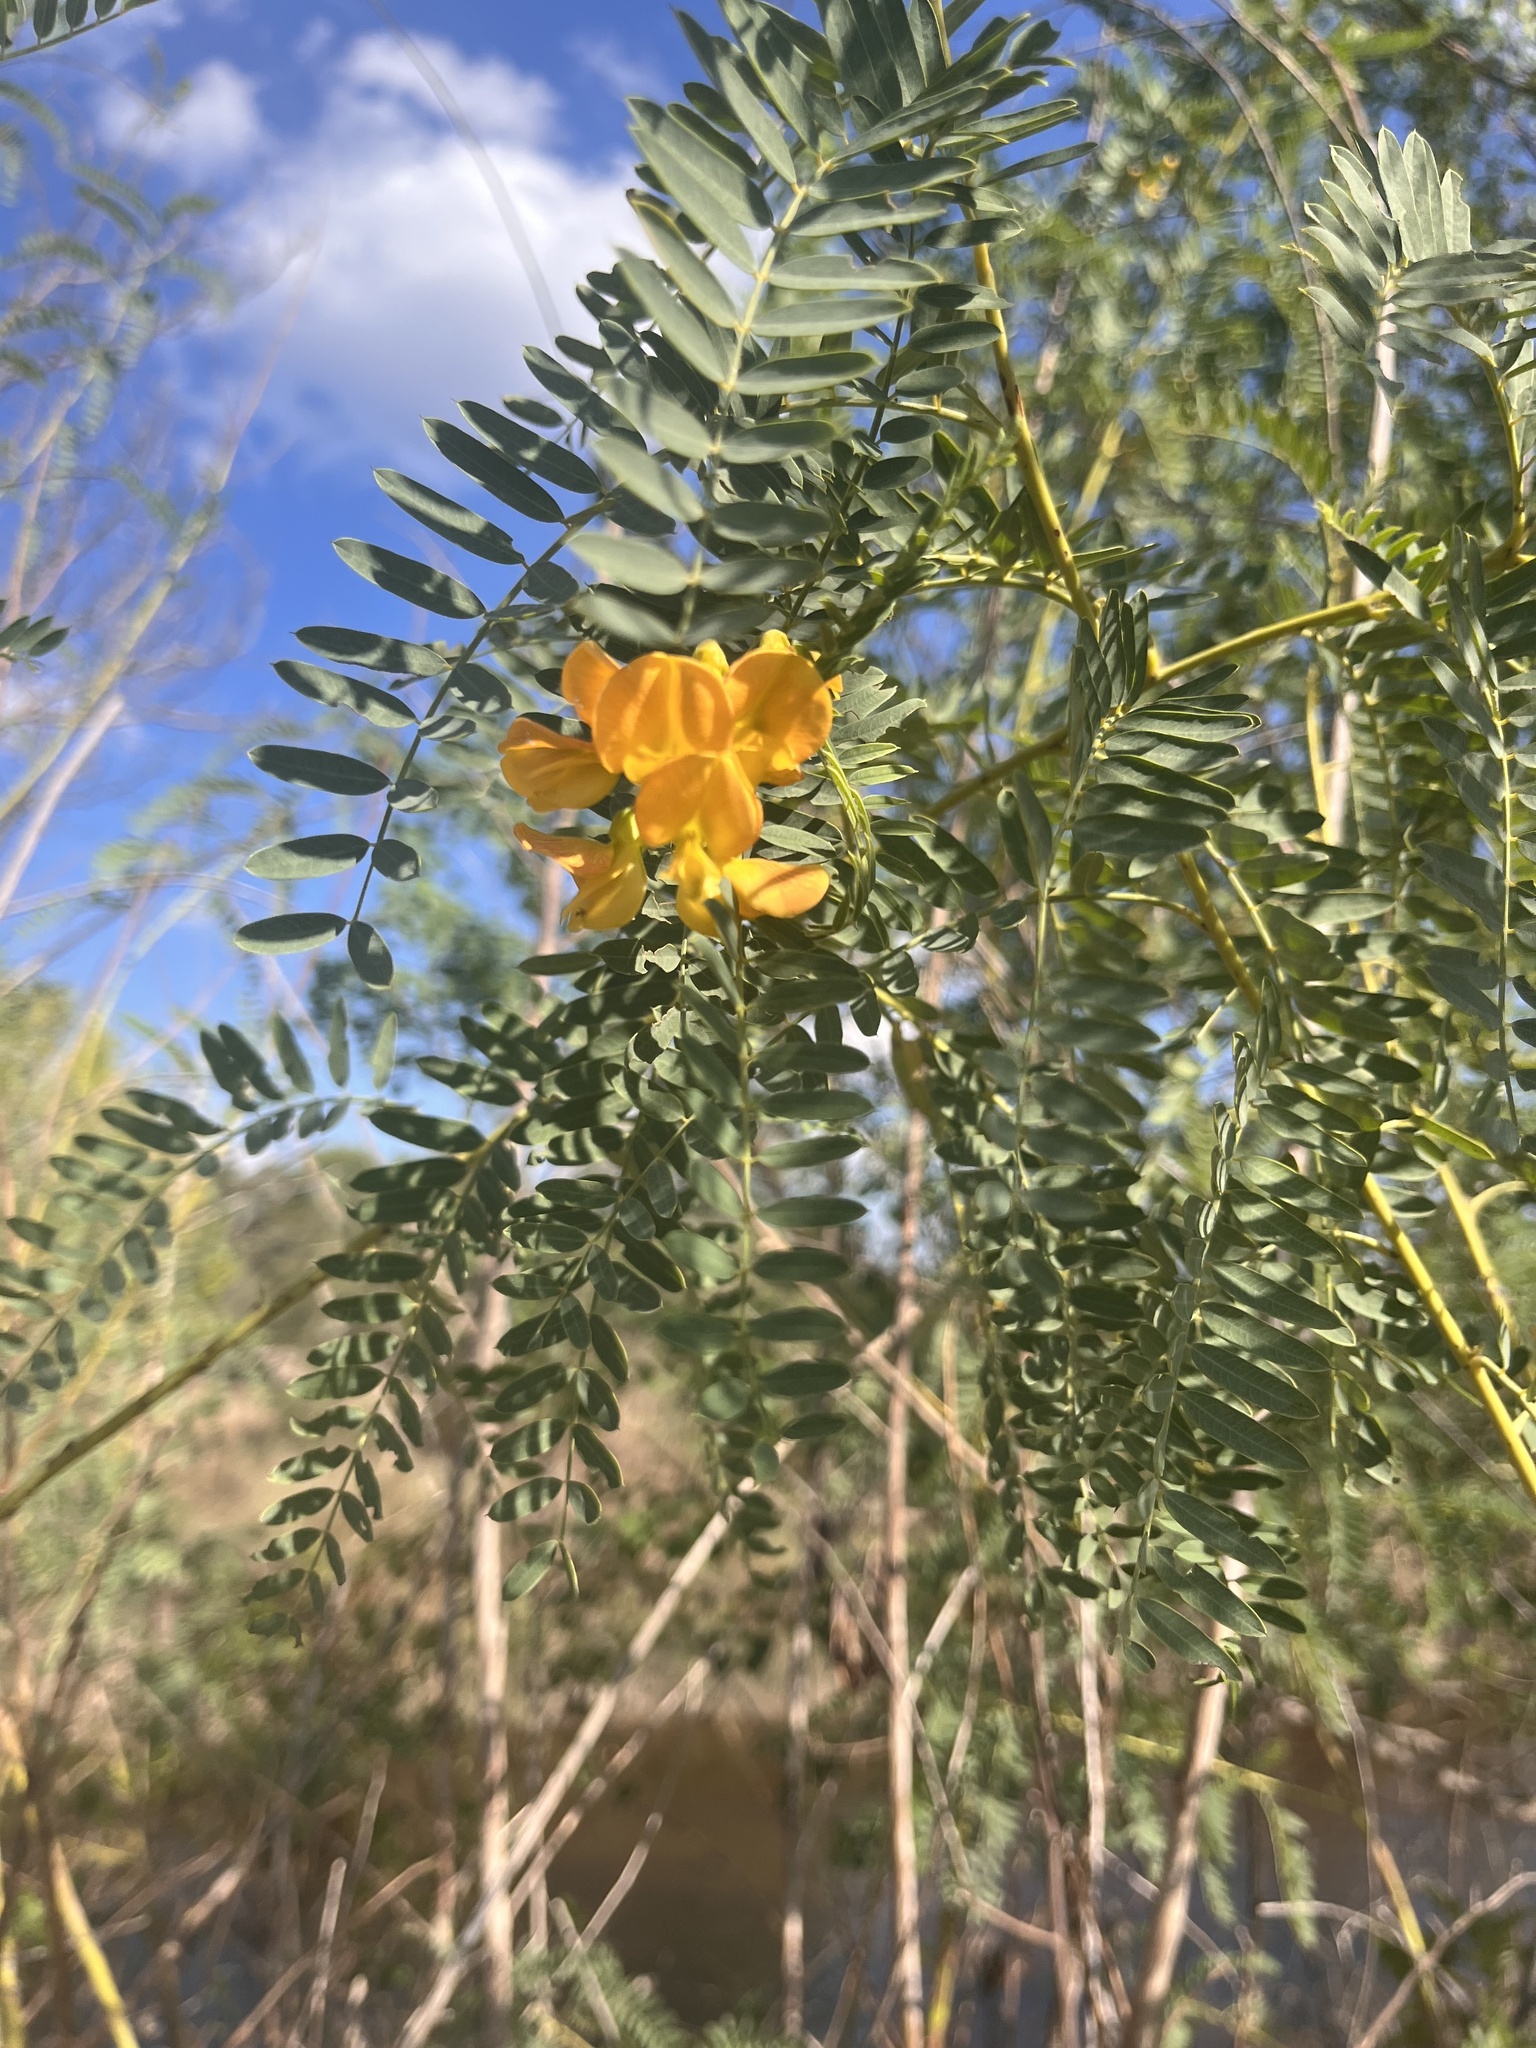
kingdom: Plantae
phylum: Tracheophyta
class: Magnoliopsida
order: Fabales
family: Fabaceae
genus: Sesbania
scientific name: Sesbania drummondii
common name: Poison-bean
